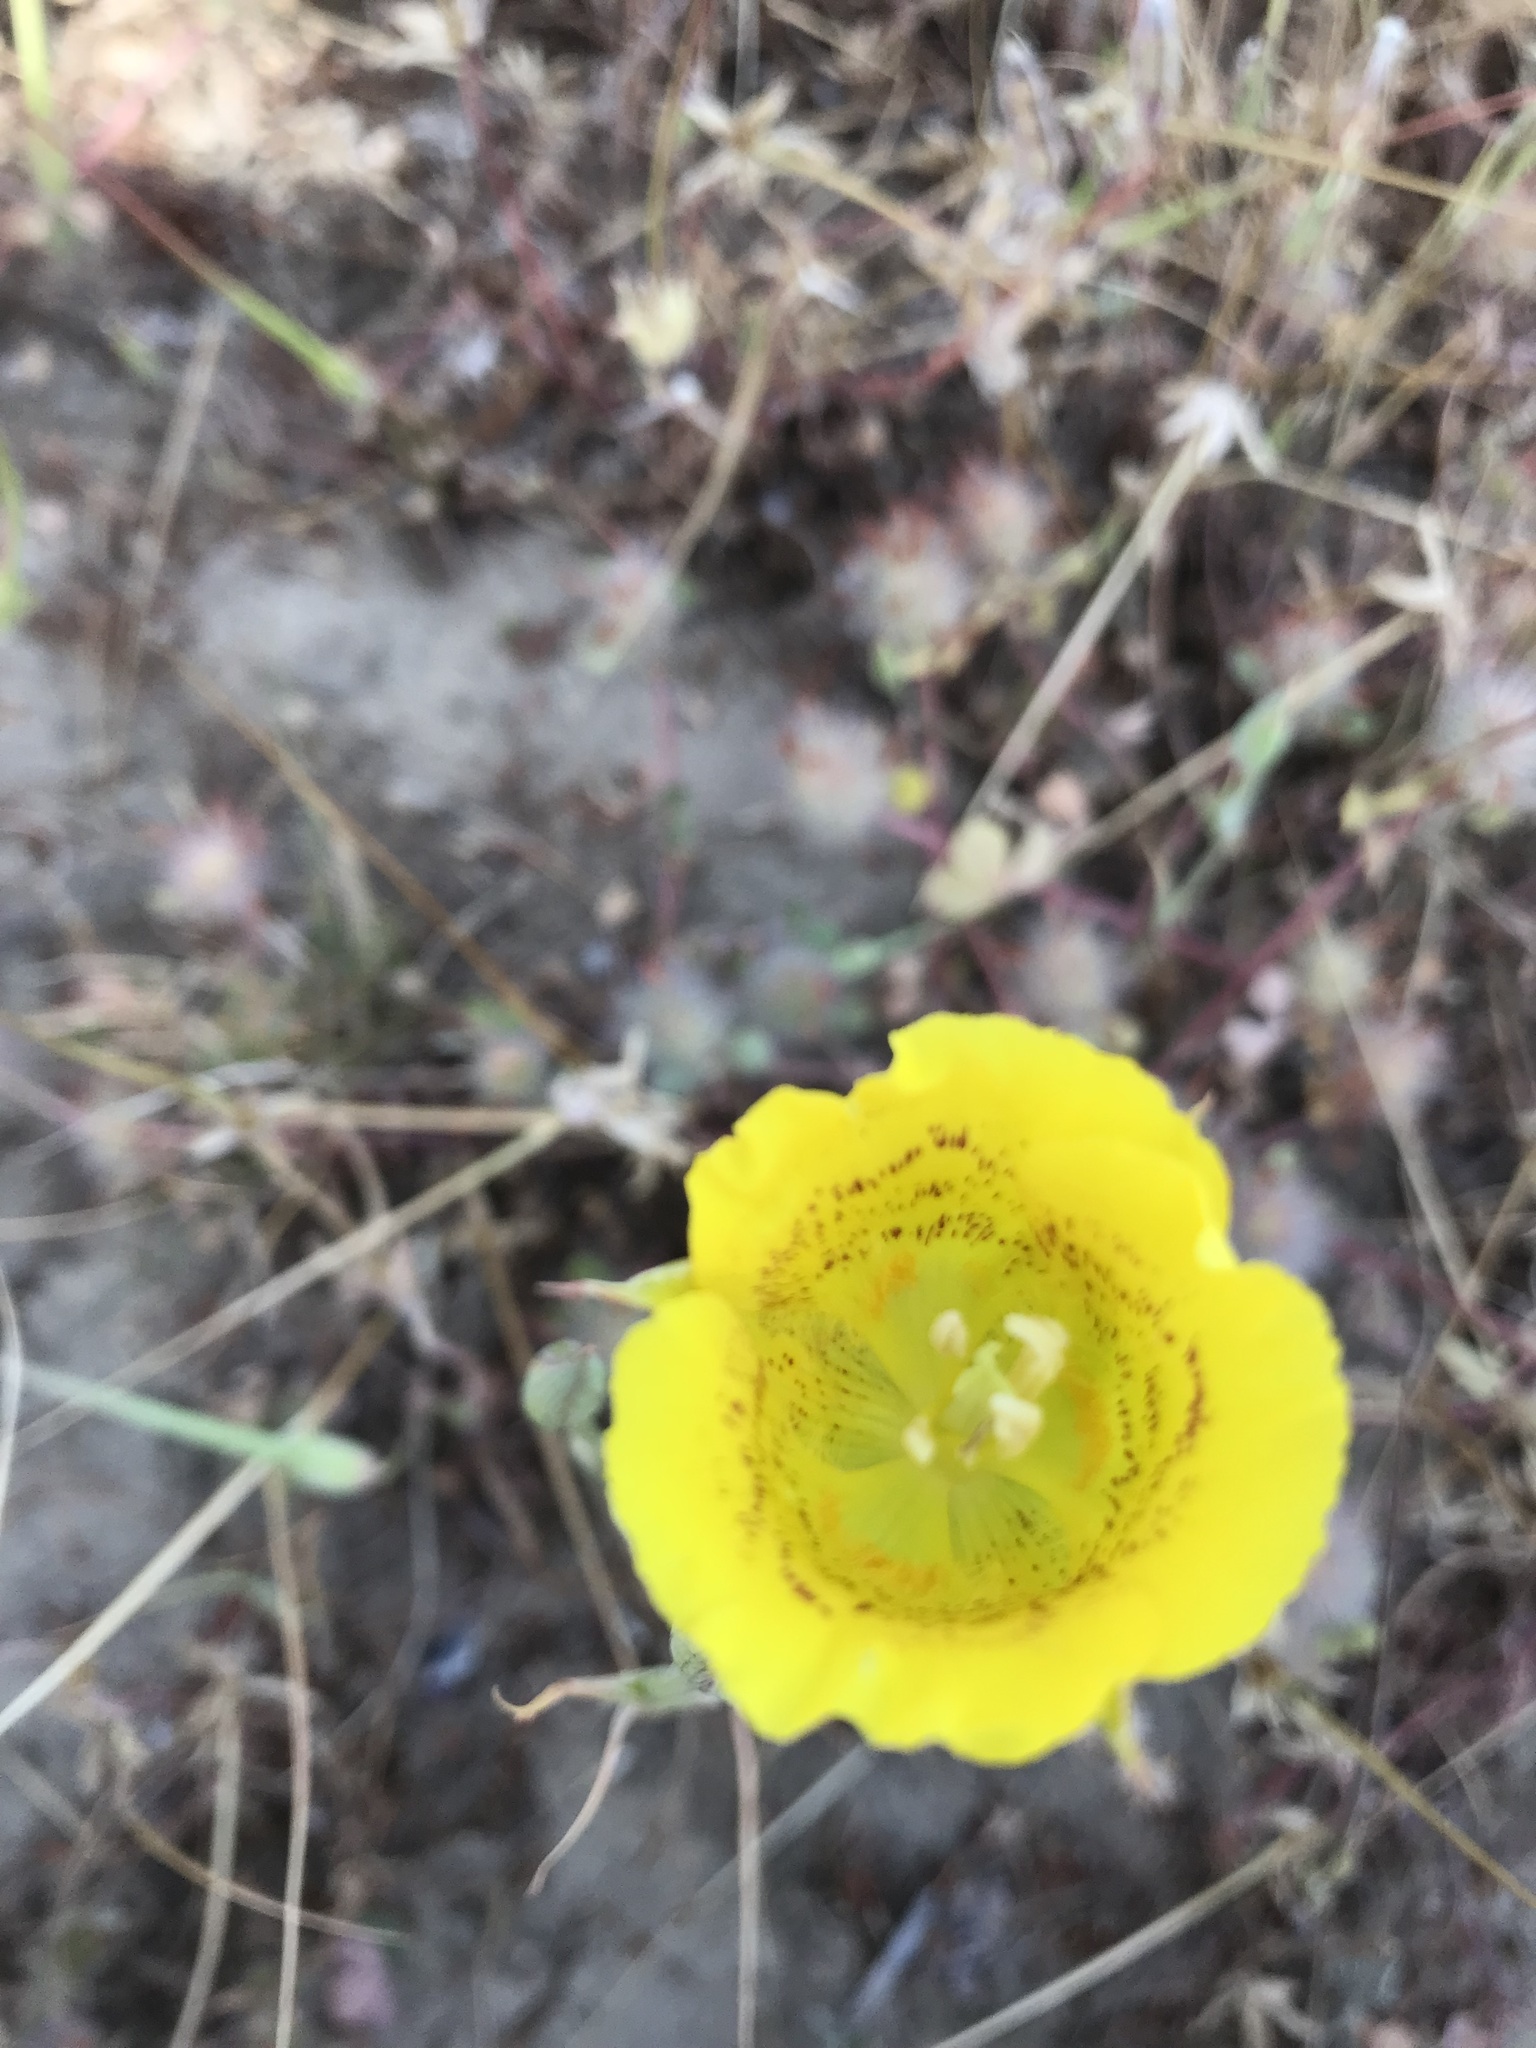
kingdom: Plantae
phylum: Tracheophyta
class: Liliopsida
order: Liliales
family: Liliaceae
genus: Calochortus
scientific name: Calochortus luteus
